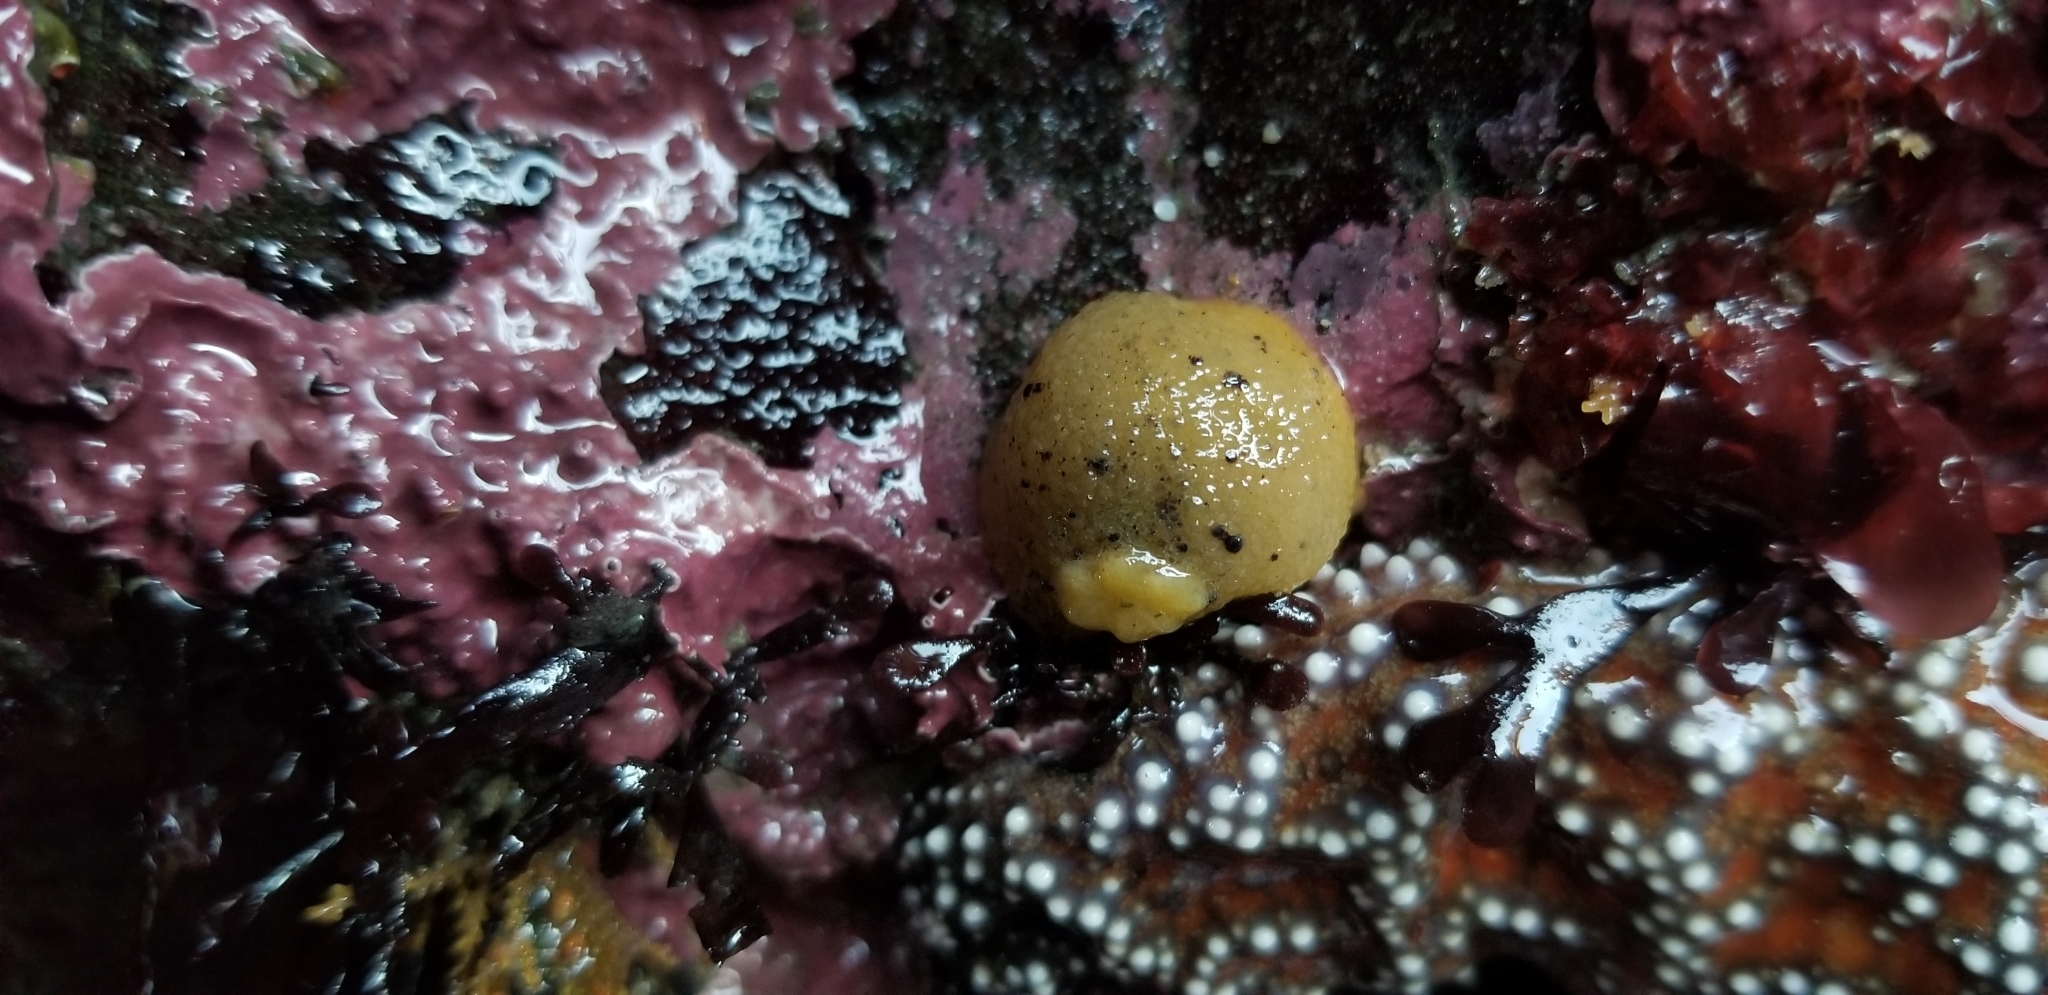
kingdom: Animalia
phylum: Mollusca
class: Gastropoda
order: Nudibranchia
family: Dorididae
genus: Doris
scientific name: Doris montereyensis
